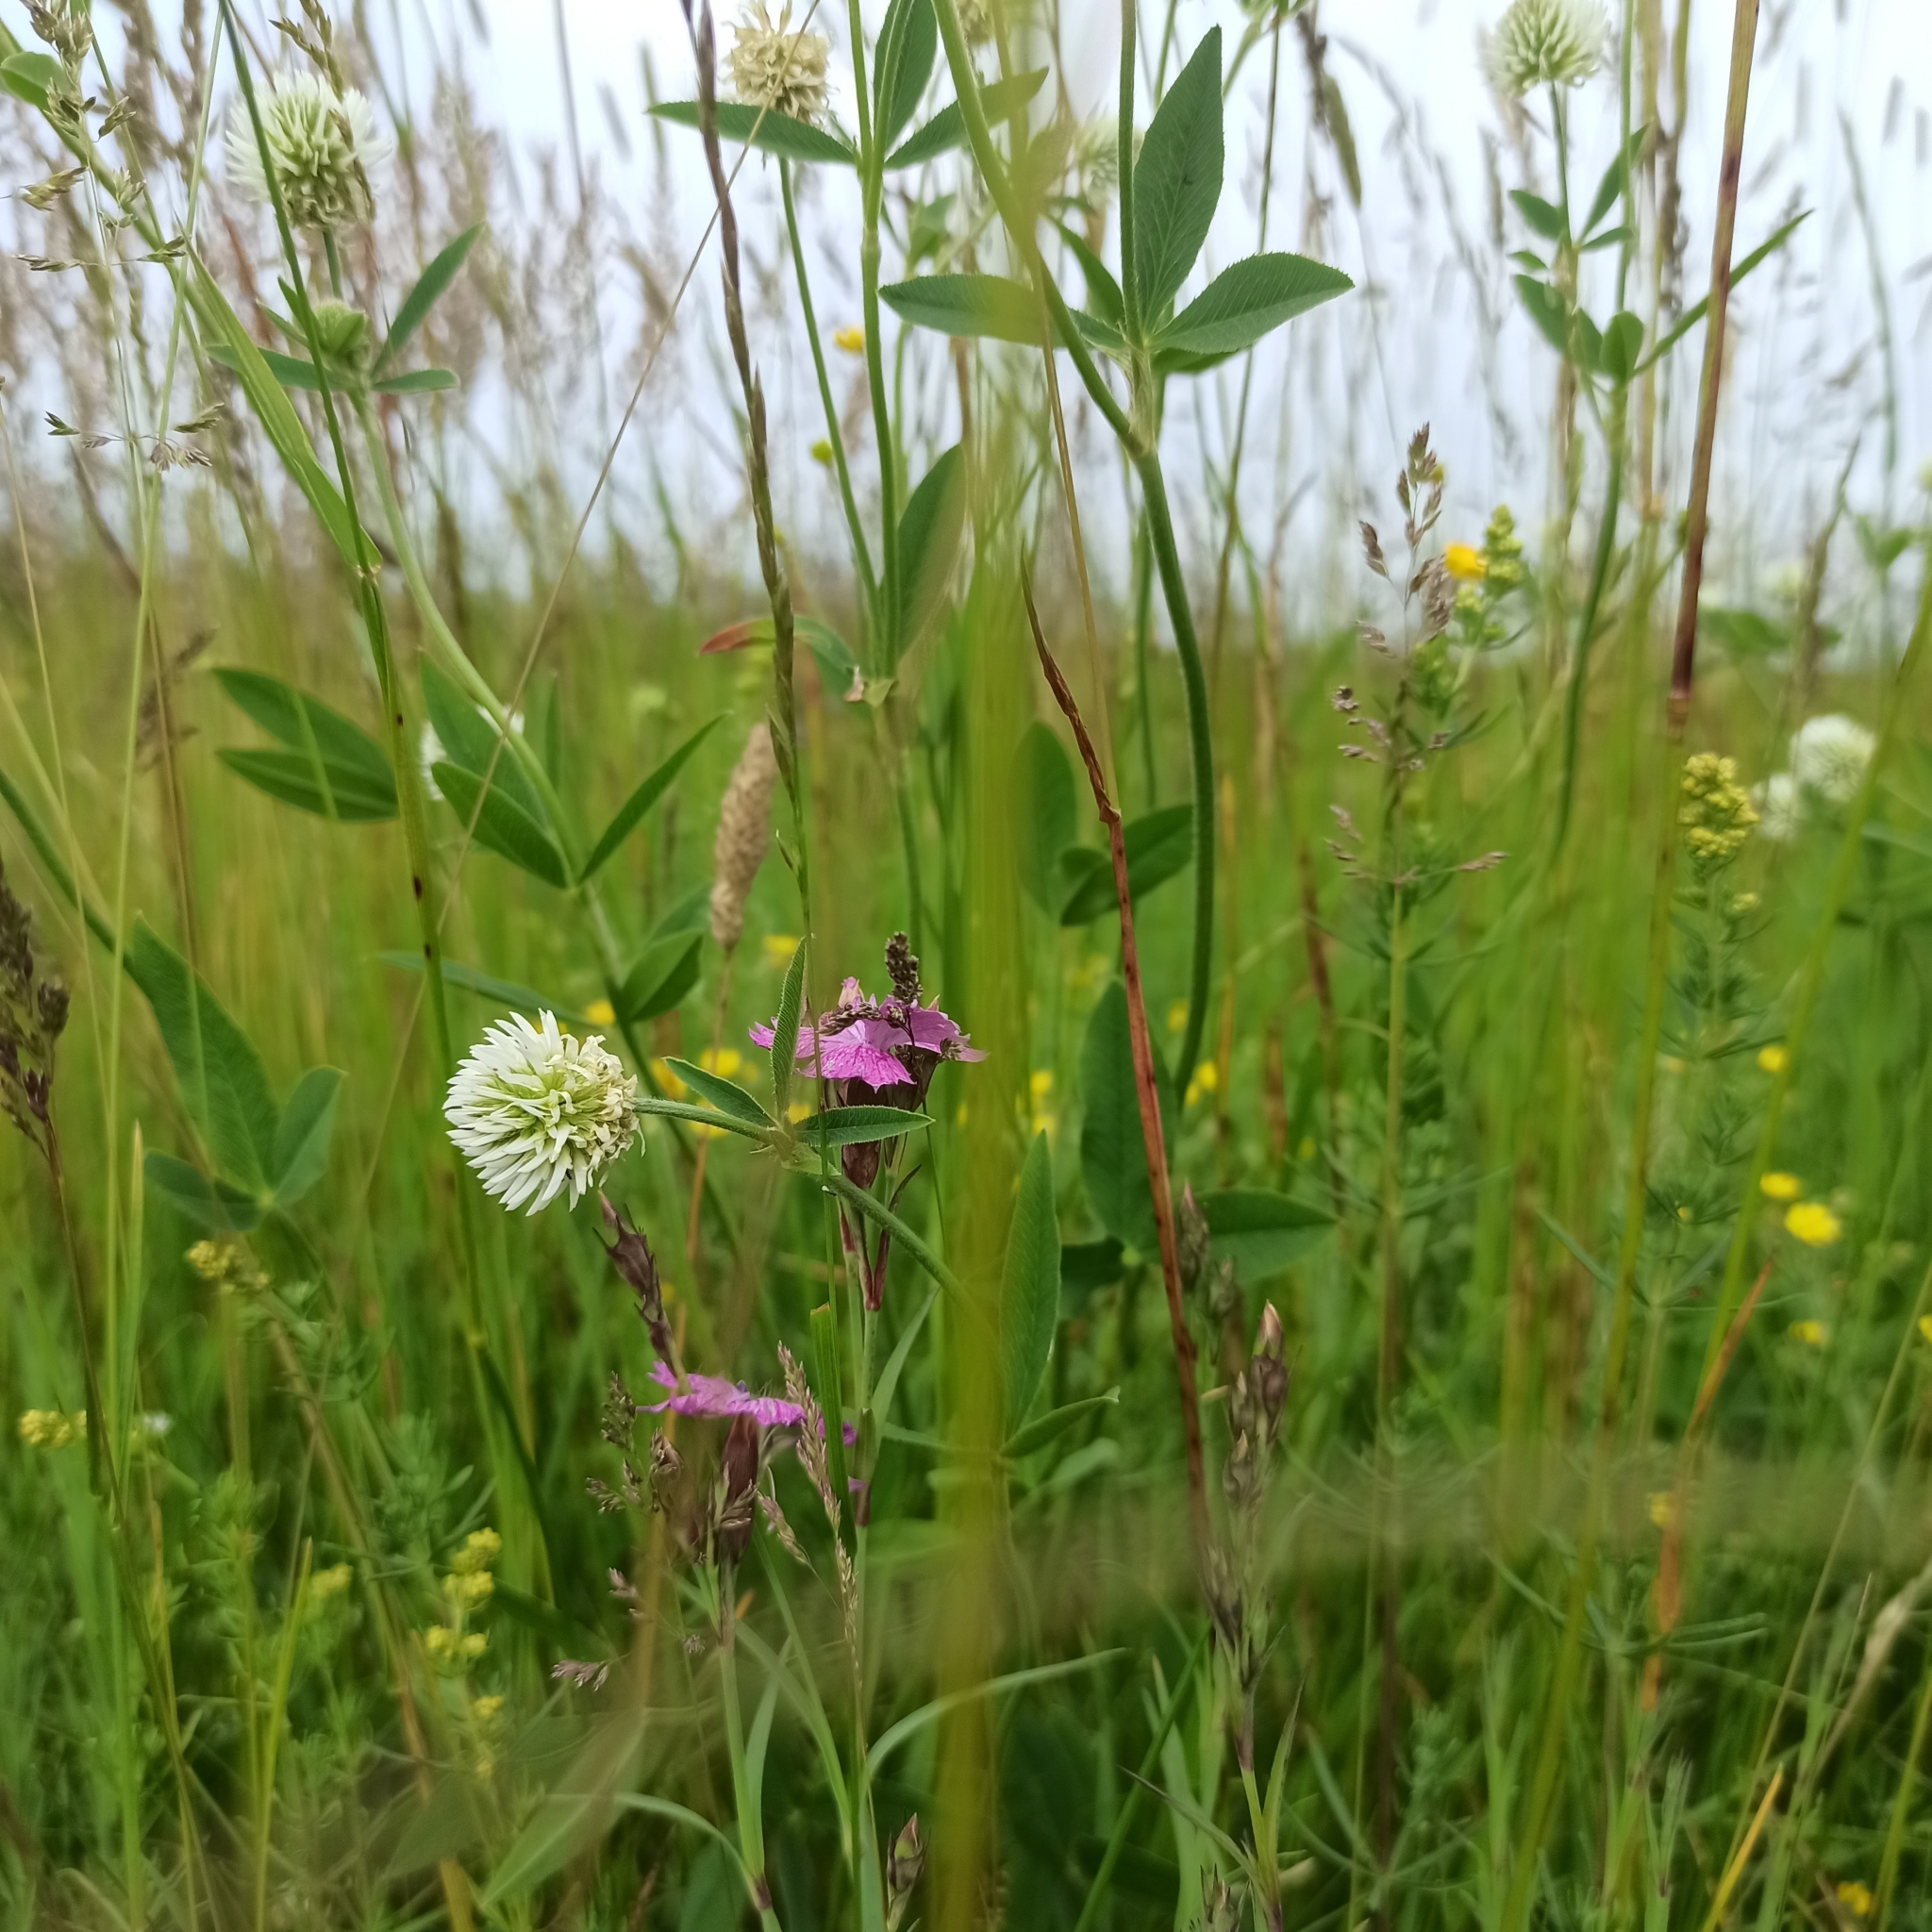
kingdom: Plantae
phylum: Tracheophyta
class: Magnoliopsida
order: Fabales
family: Fabaceae
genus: Trifolium
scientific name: Trifolium montanum
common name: Mountain clover
